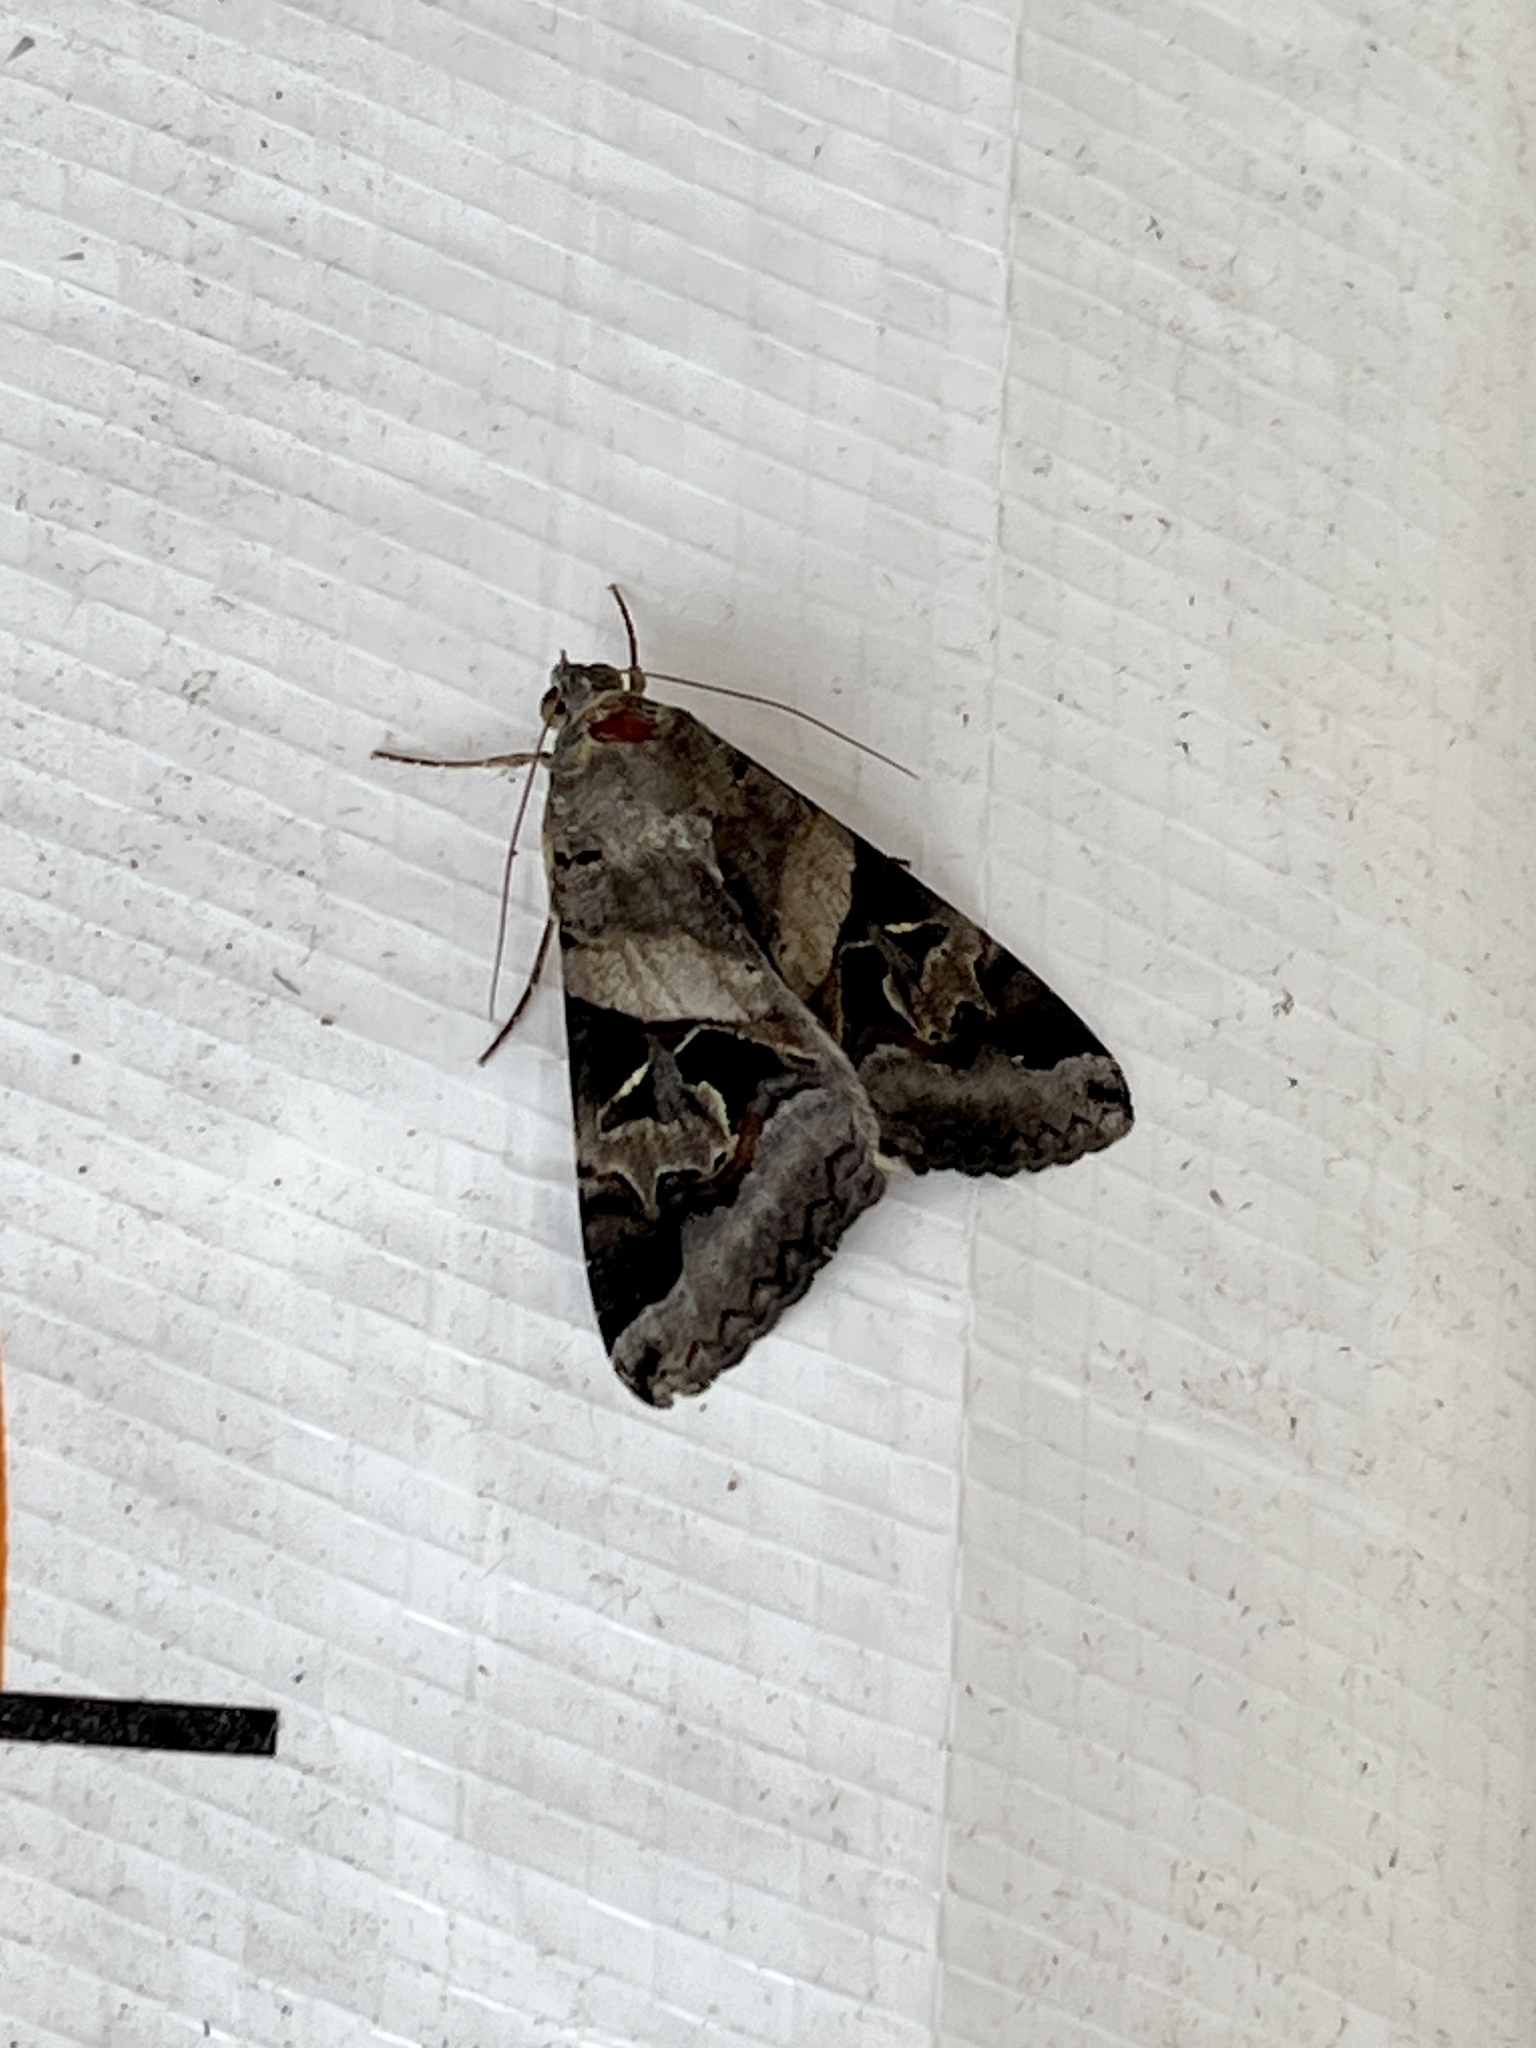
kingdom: Animalia
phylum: Arthropoda
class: Insecta
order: Lepidoptera
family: Erebidae
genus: Melipotis
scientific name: Melipotis indomita
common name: Moth
